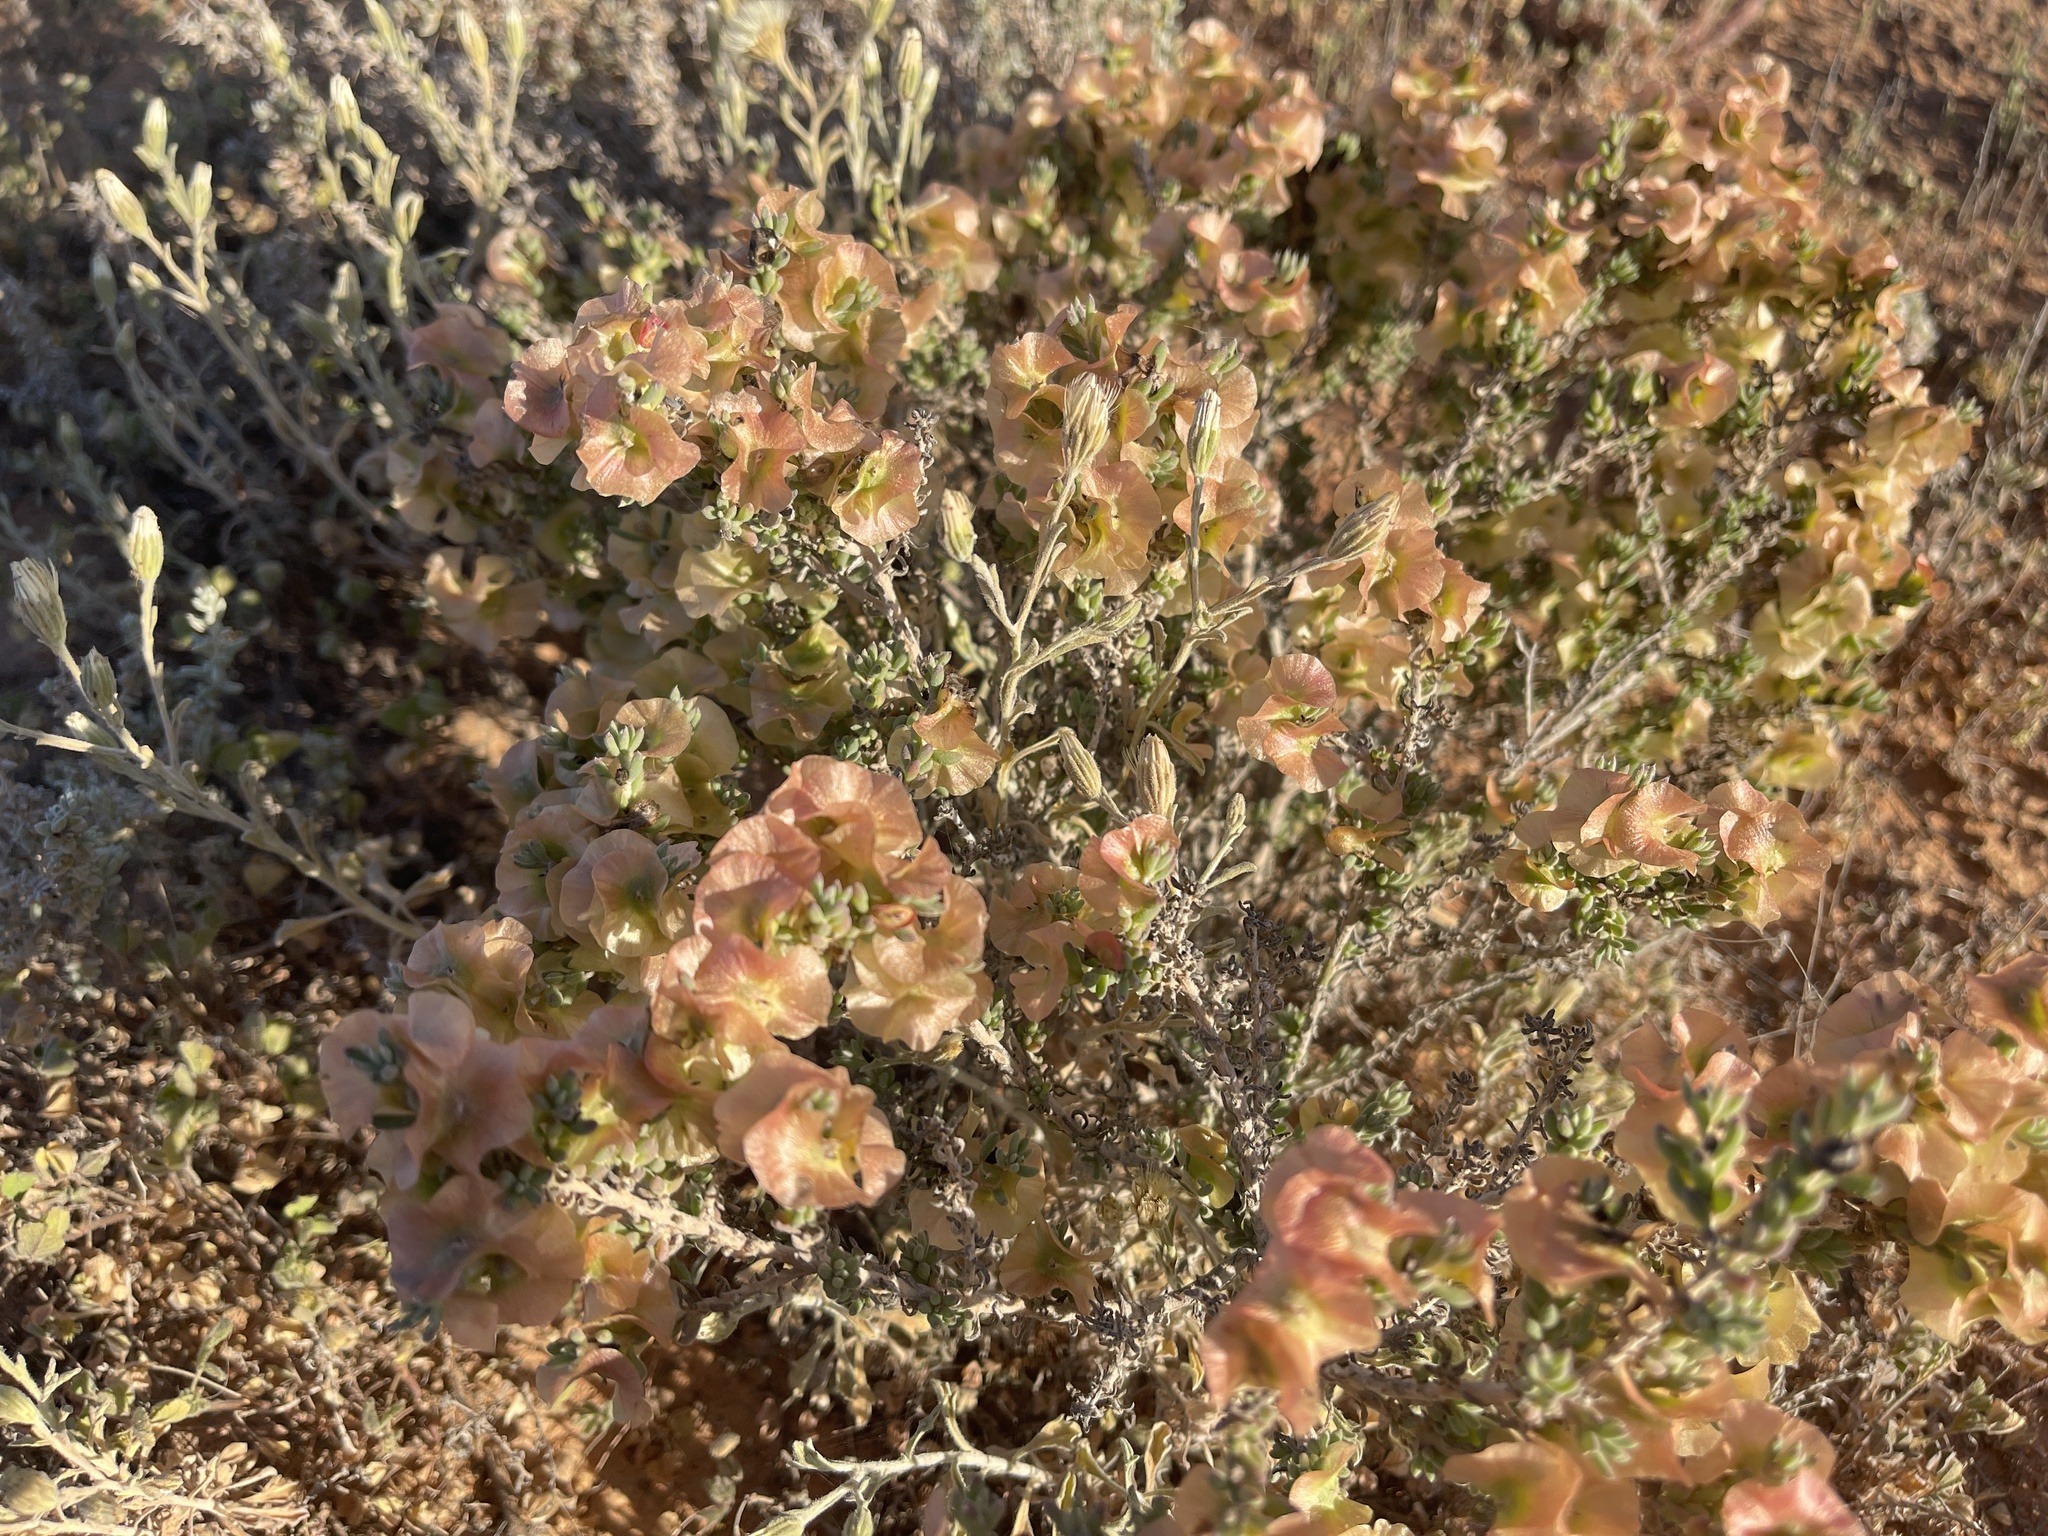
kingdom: Plantae
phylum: Tracheophyta
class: Magnoliopsida
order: Caryophyllales
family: Amaranthaceae
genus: Maireana
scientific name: Maireana erioclada
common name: Rosy bluebush
